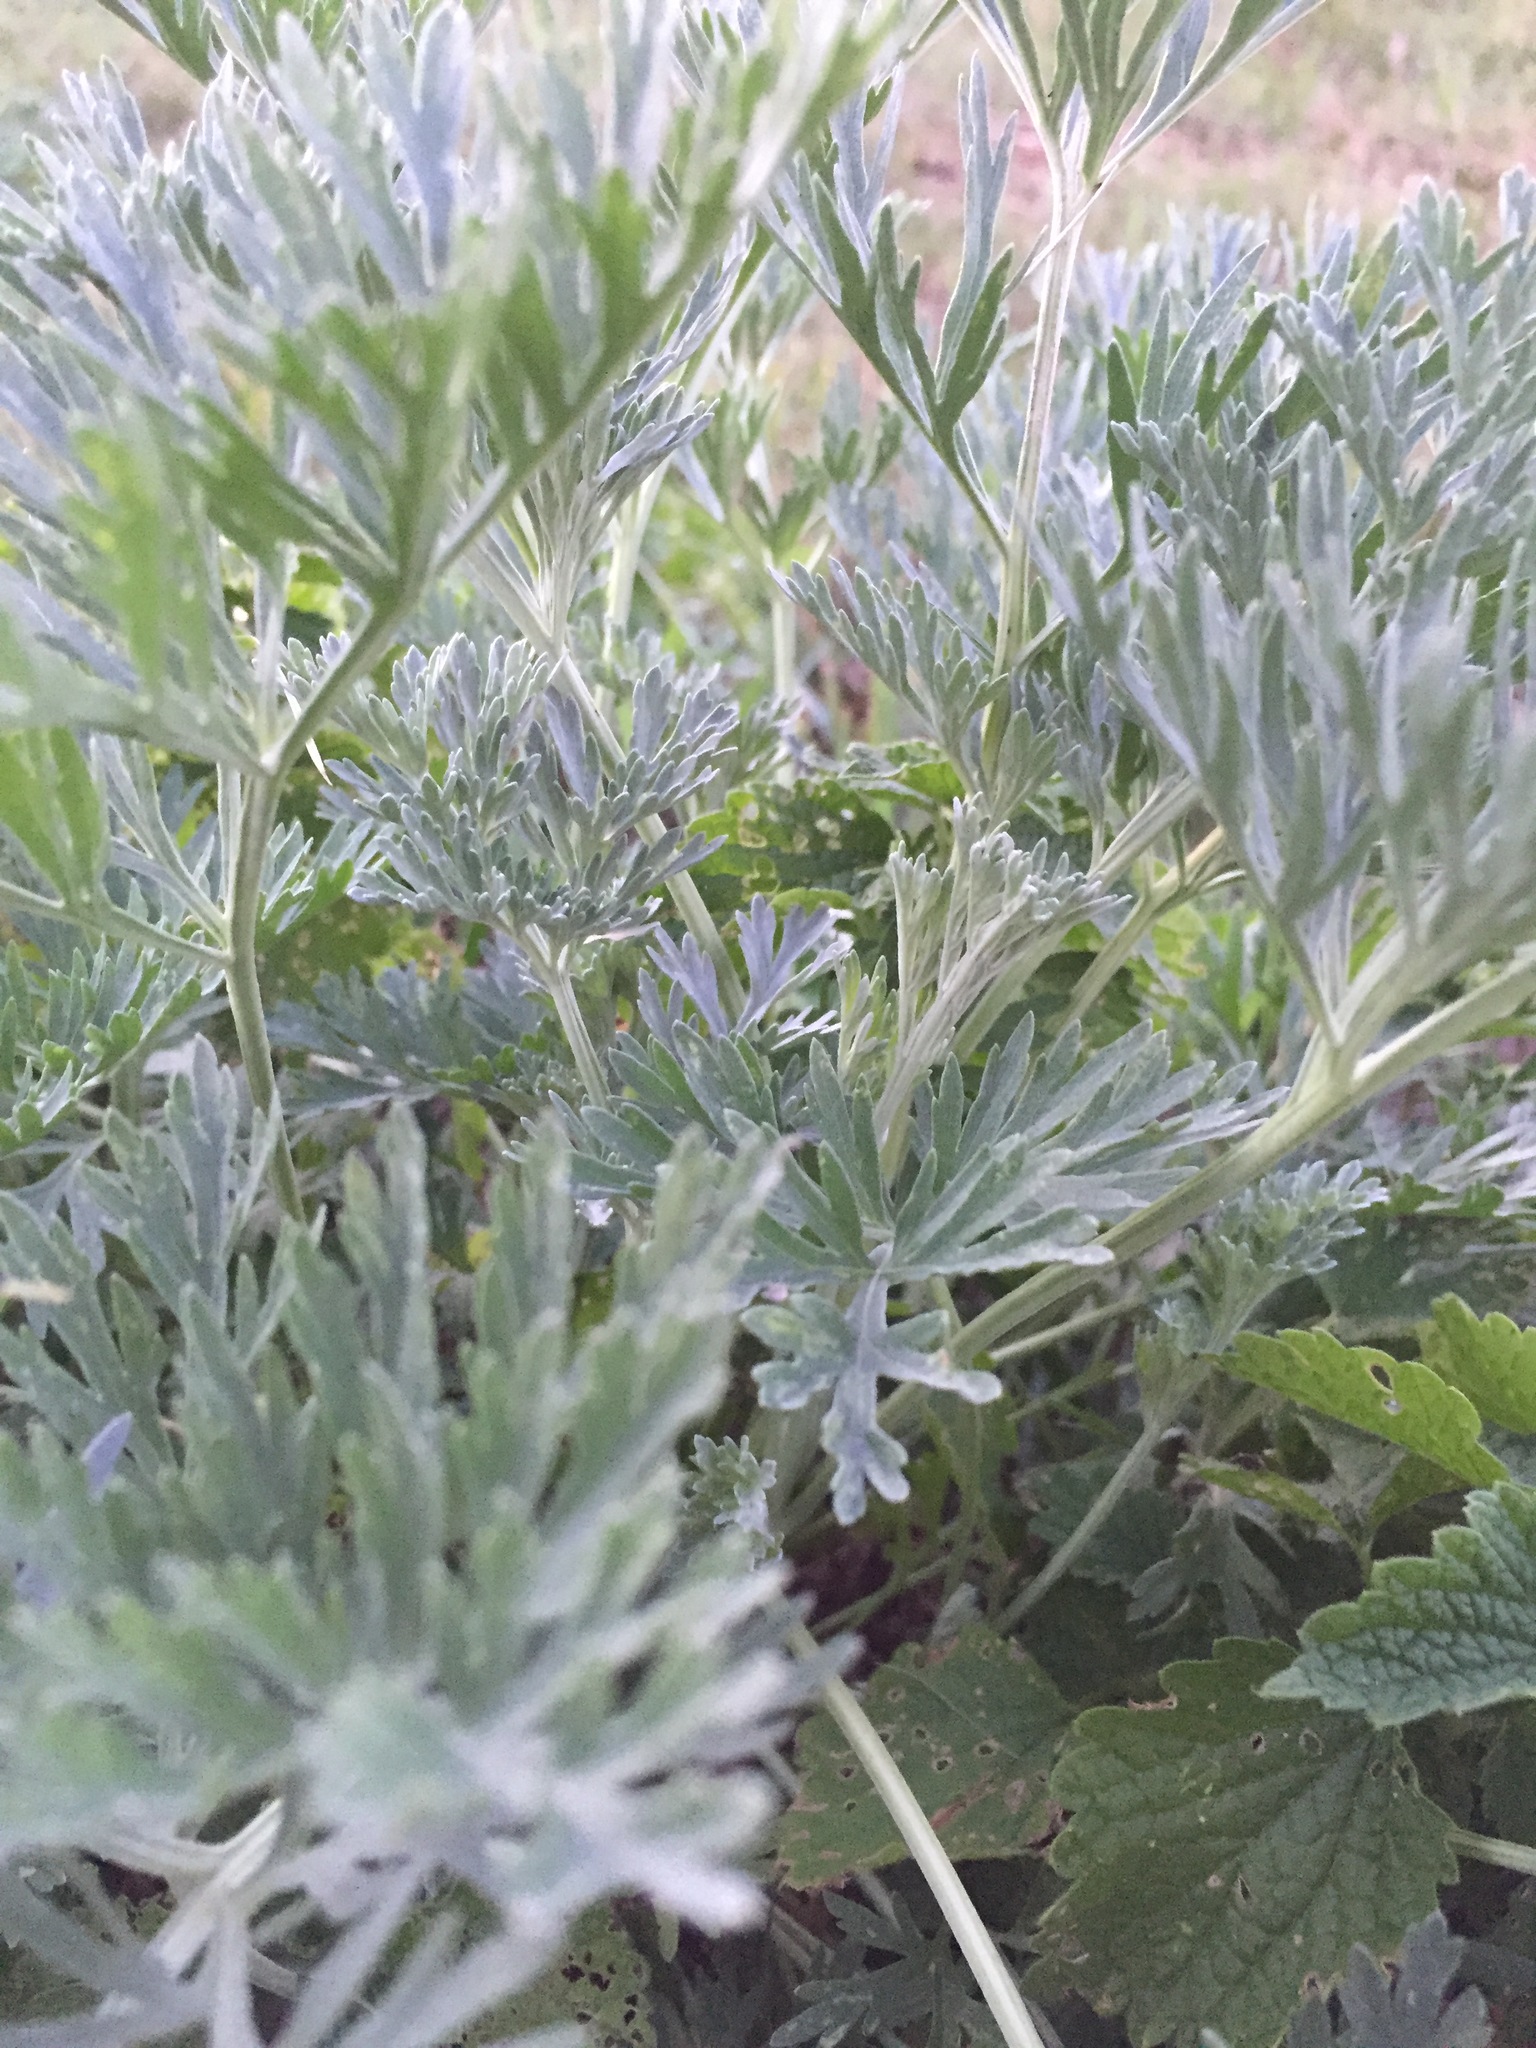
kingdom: Plantae
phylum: Tracheophyta
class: Magnoliopsida
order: Asterales
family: Asteraceae
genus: Artemisia
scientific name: Artemisia absinthium
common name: Wormwood
